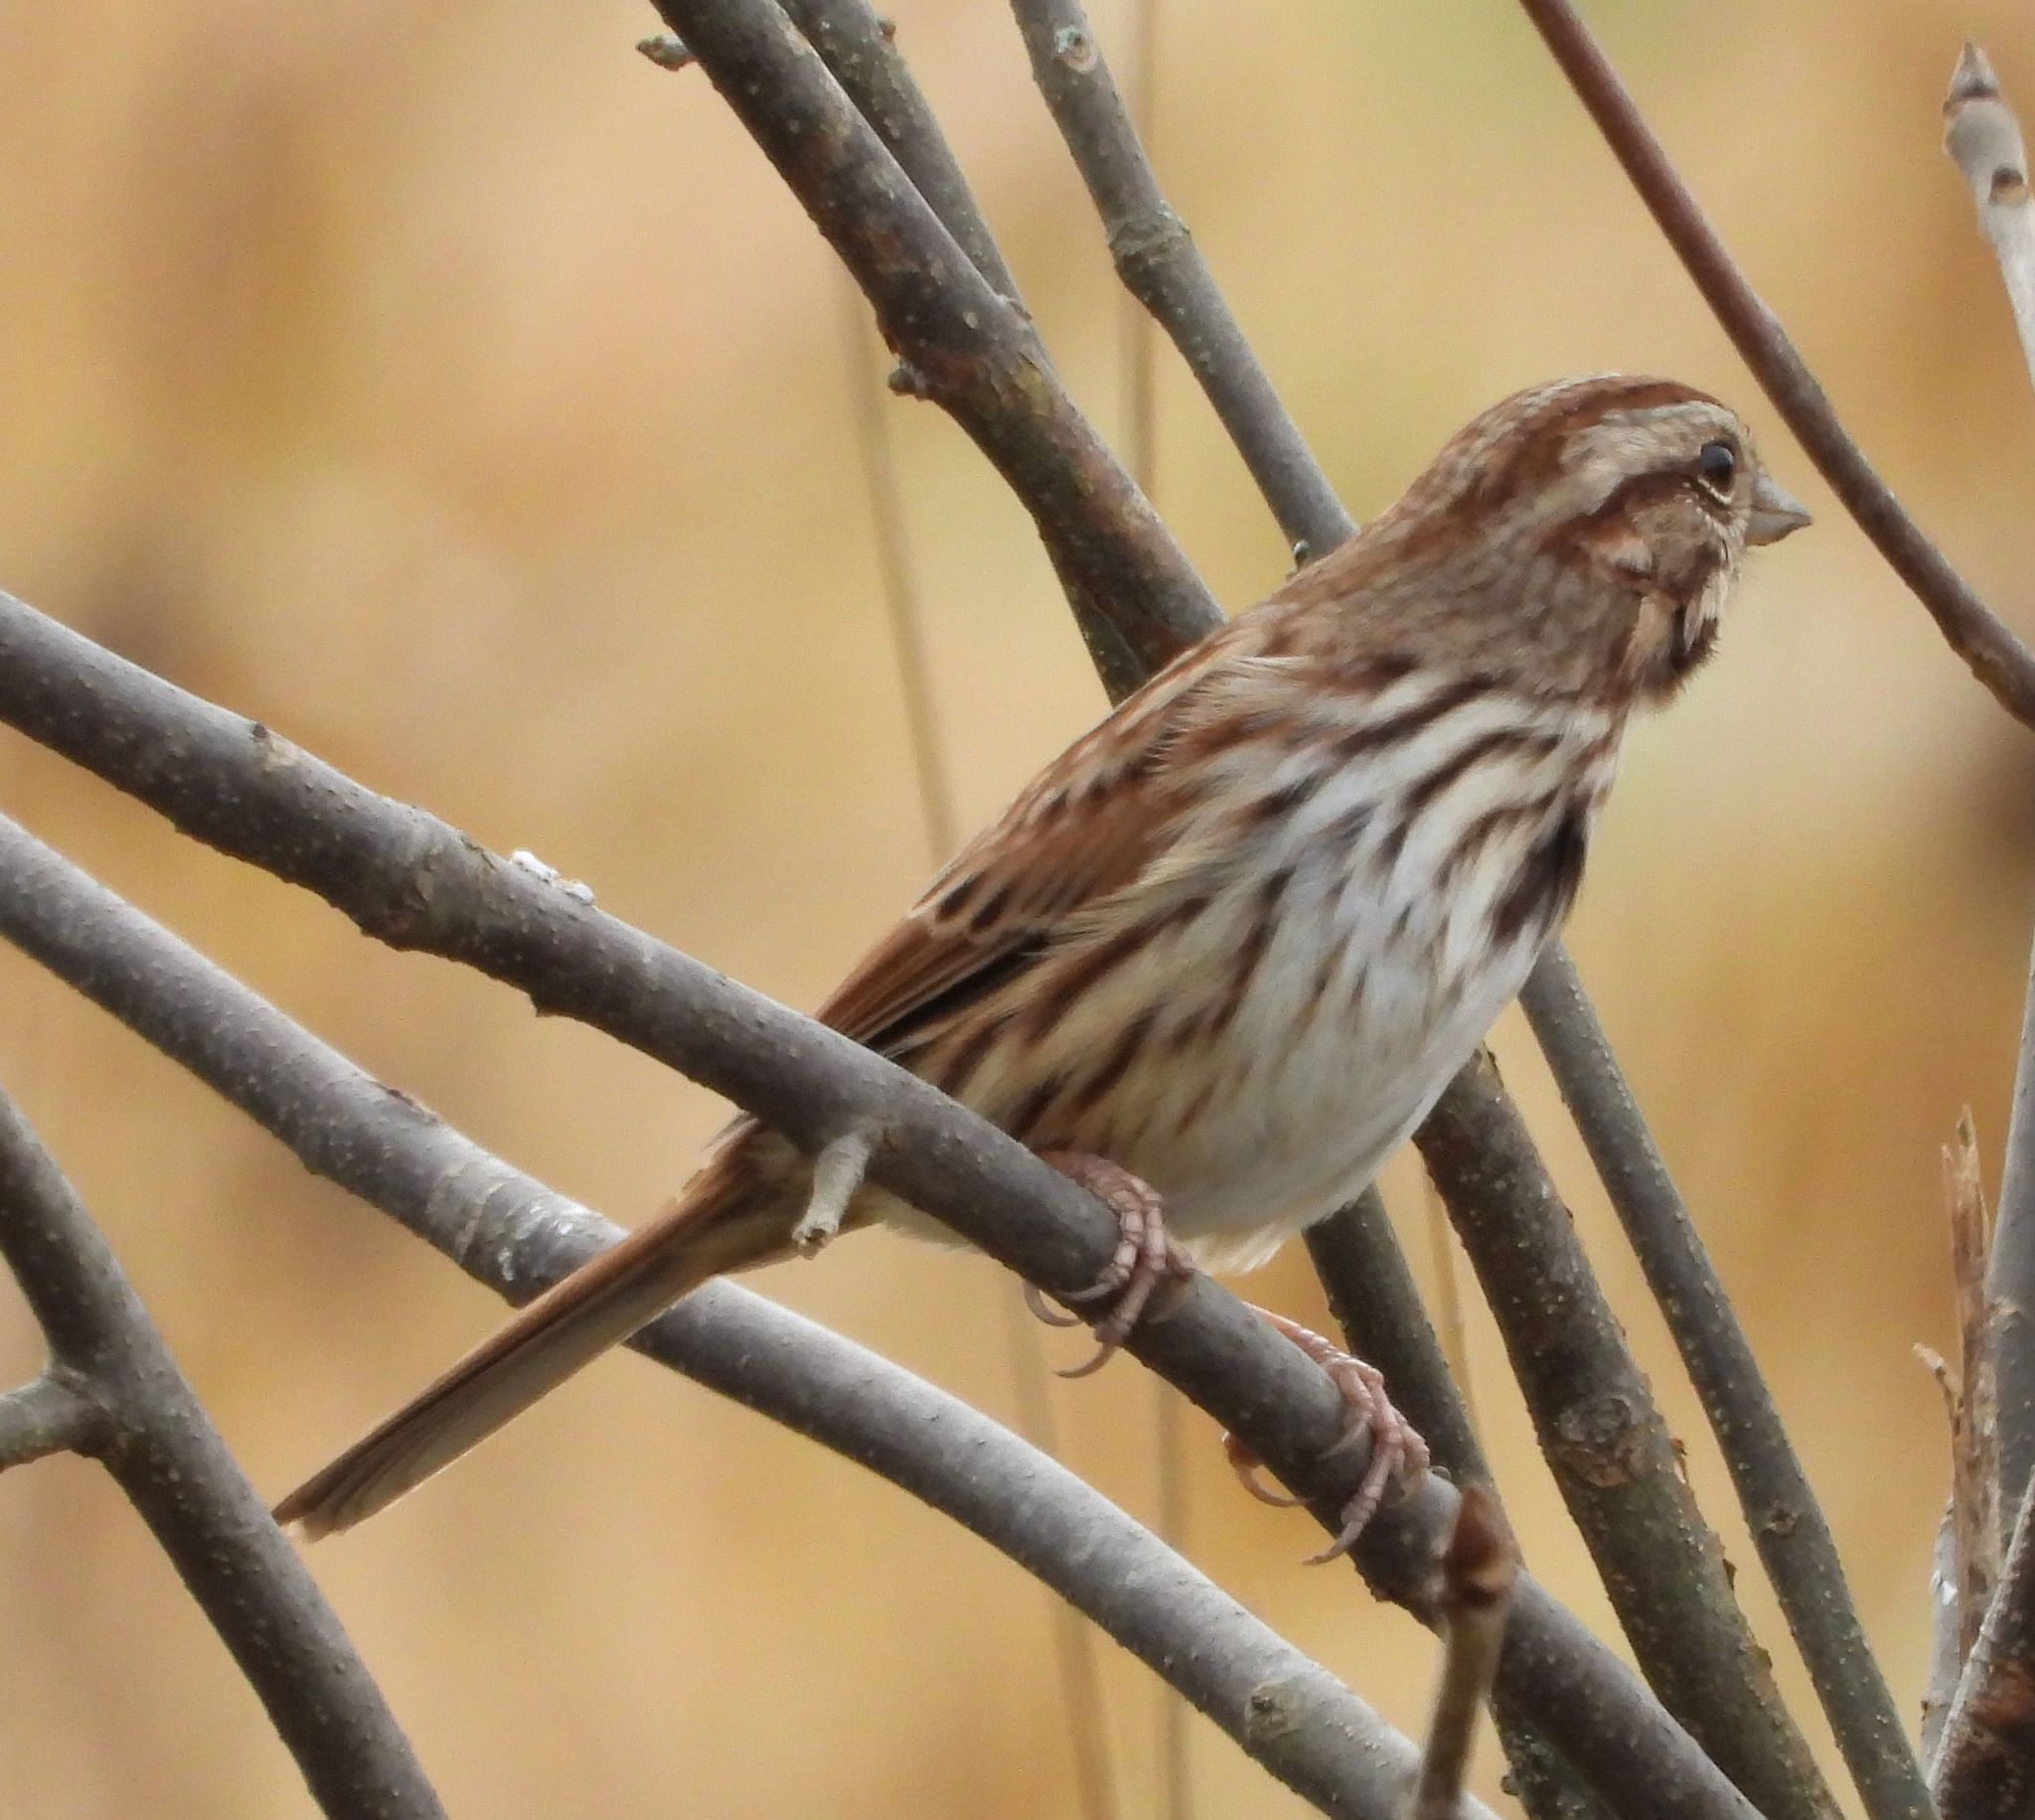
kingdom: Animalia
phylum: Chordata
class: Aves
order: Passeriformes
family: Passerellidae
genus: Melospiza
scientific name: Melospiza melodia
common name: Song sparrow
